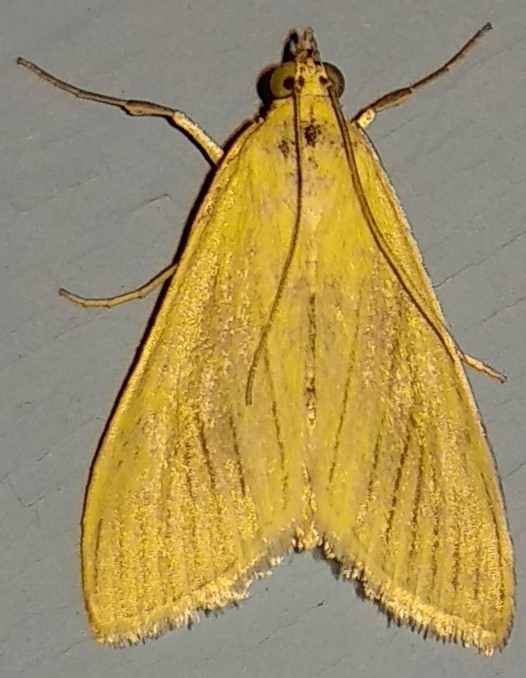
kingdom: Animalia
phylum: Arthropoda
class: Insecta
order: Lepidoptera
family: Crambidae
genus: Sitochroa
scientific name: Sitochroa palealis
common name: Greenish-yellow sitochroa moth
